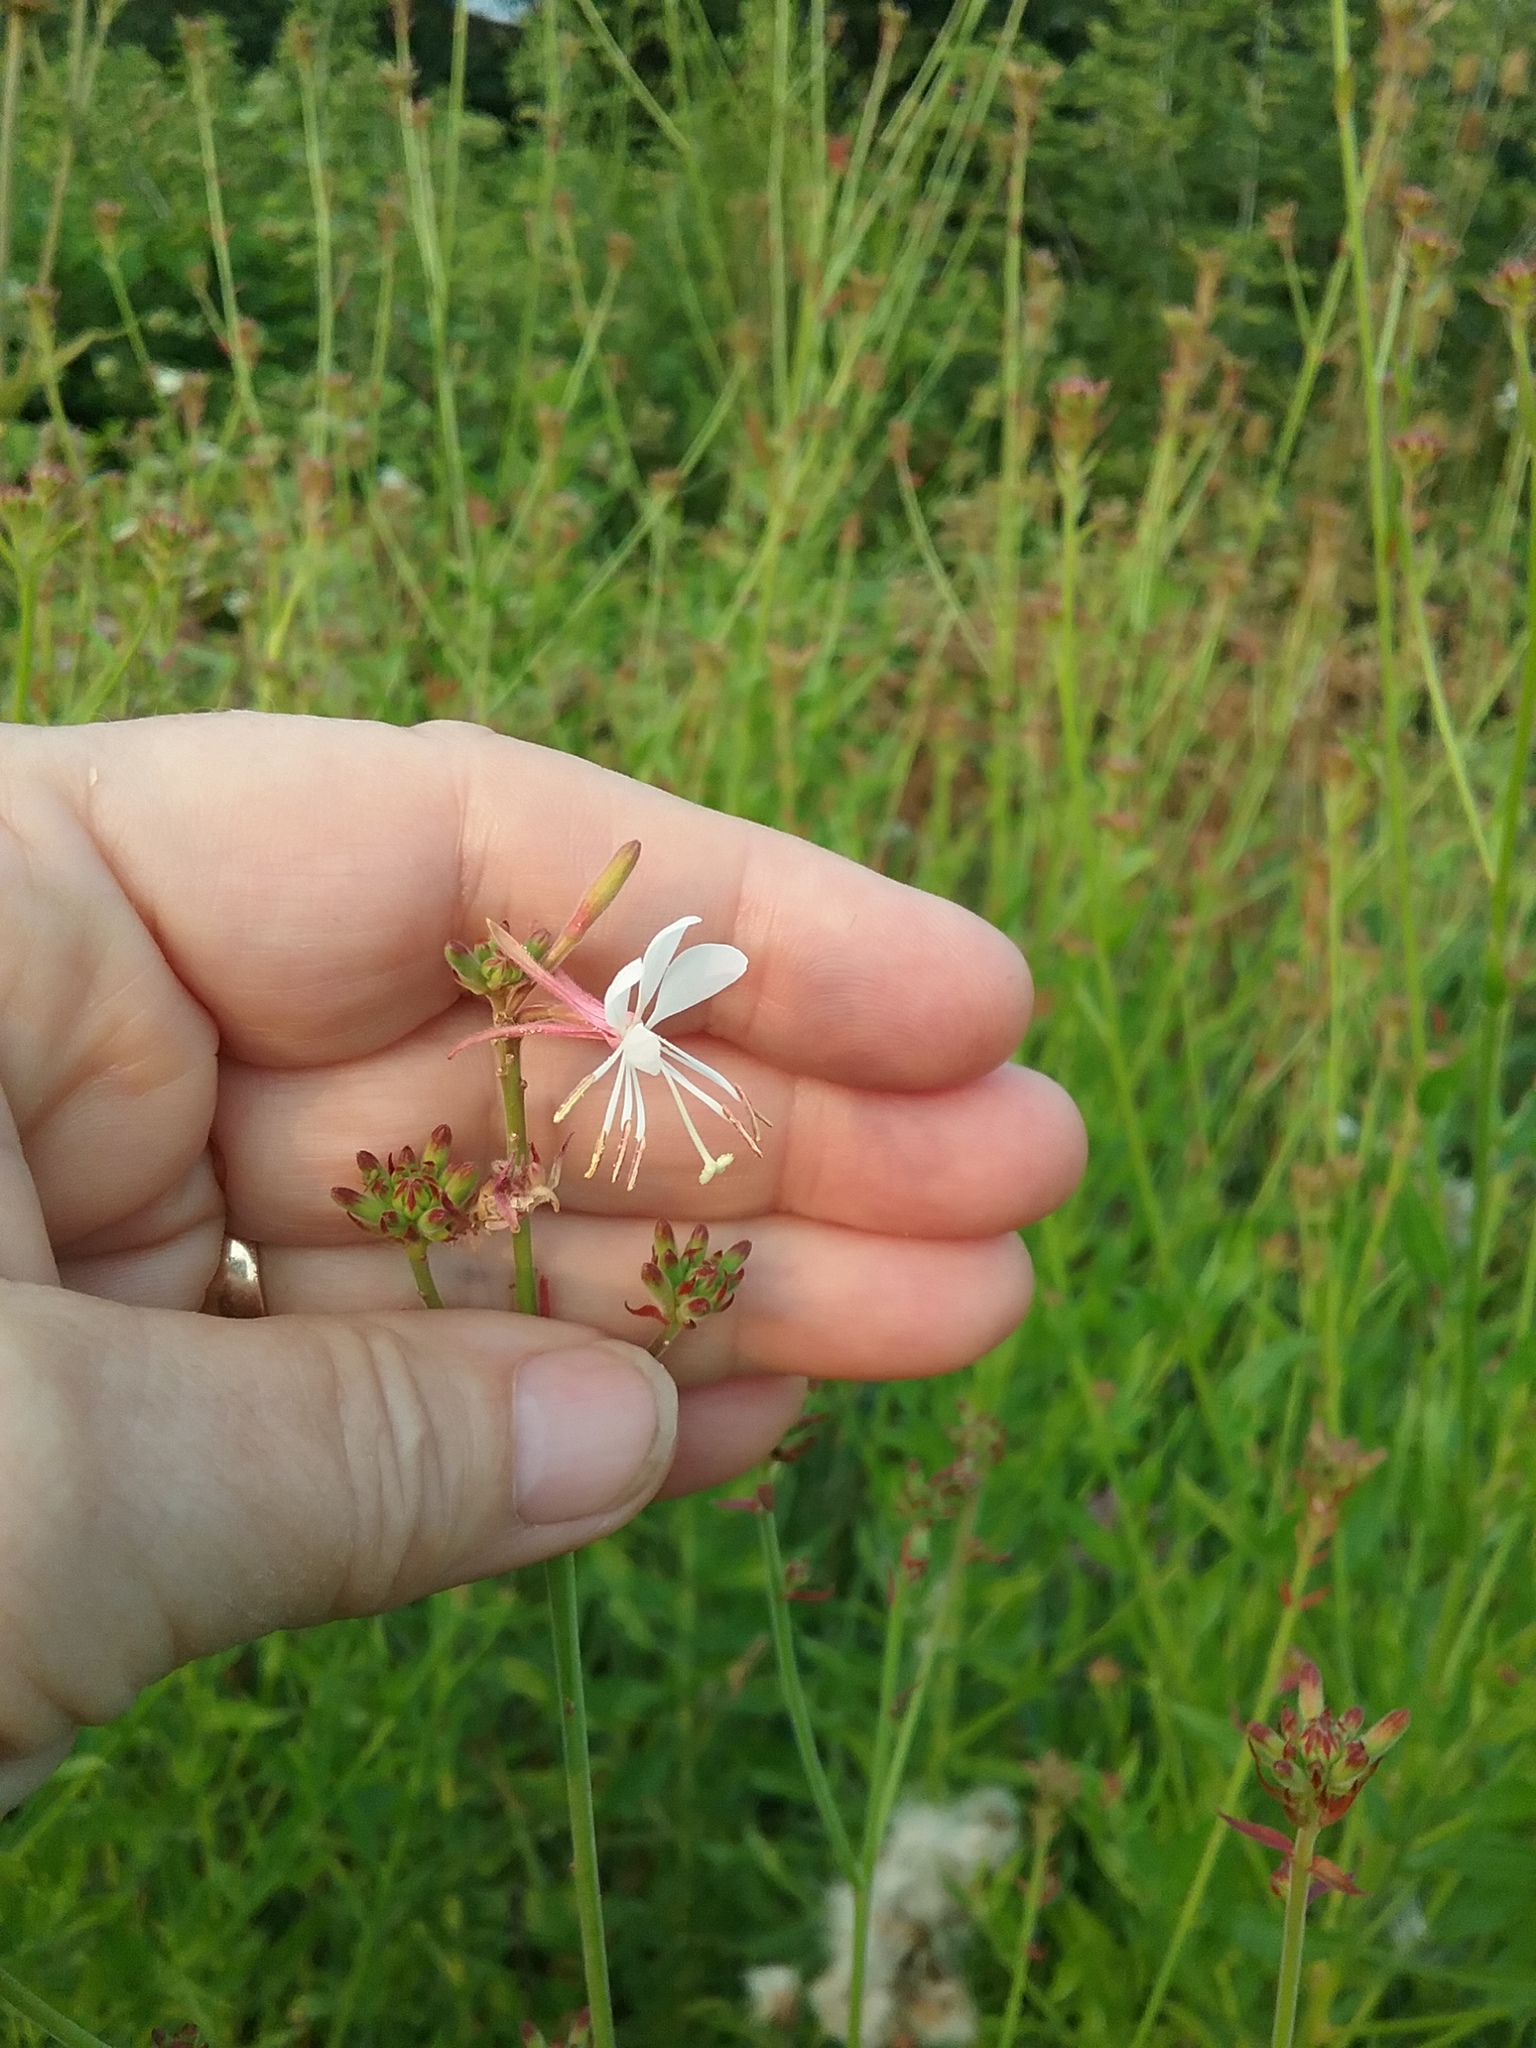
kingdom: Plantae
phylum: Tracheophyta
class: Magnoliopsida
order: Myrtales
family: Onagraceae
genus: Oenothera
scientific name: Oenothera gaura
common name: Biennial beeblossom
